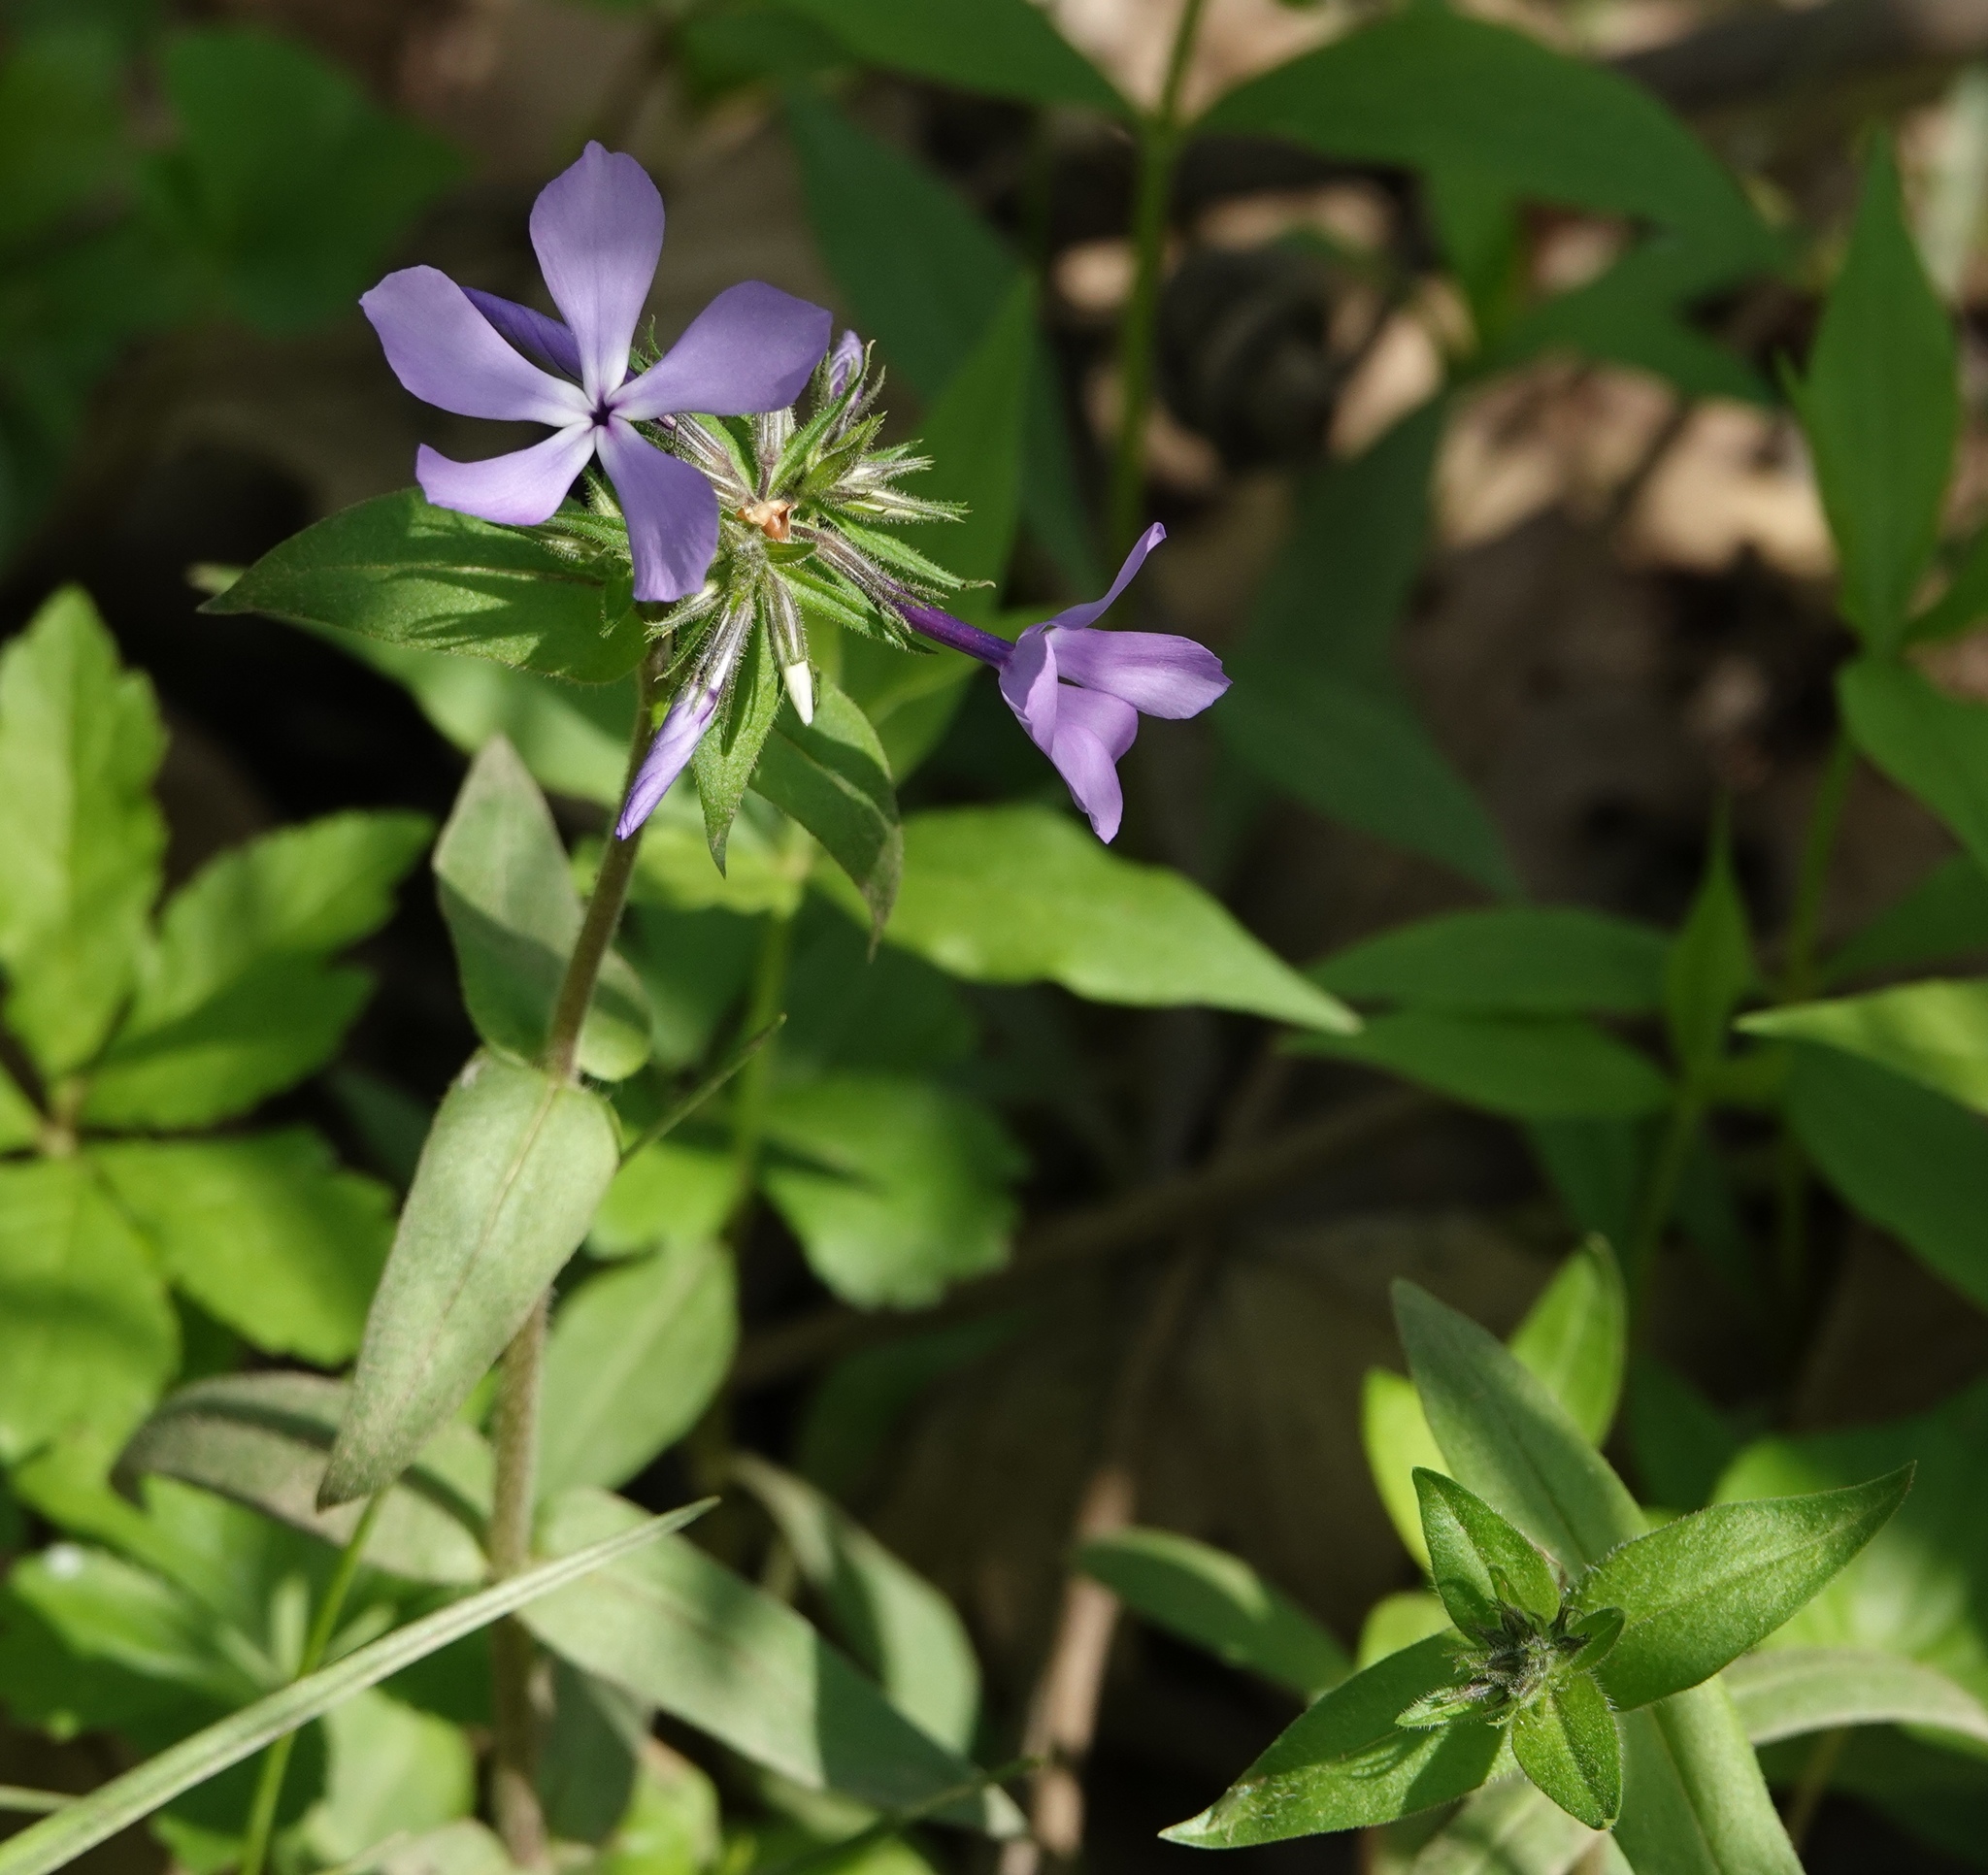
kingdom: Plantae
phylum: Tracheophyta
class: Magnoliopsida
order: Ericales
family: Polemoniaceae
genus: Phlox
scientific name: Phlox divaricata
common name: Blue phlox
